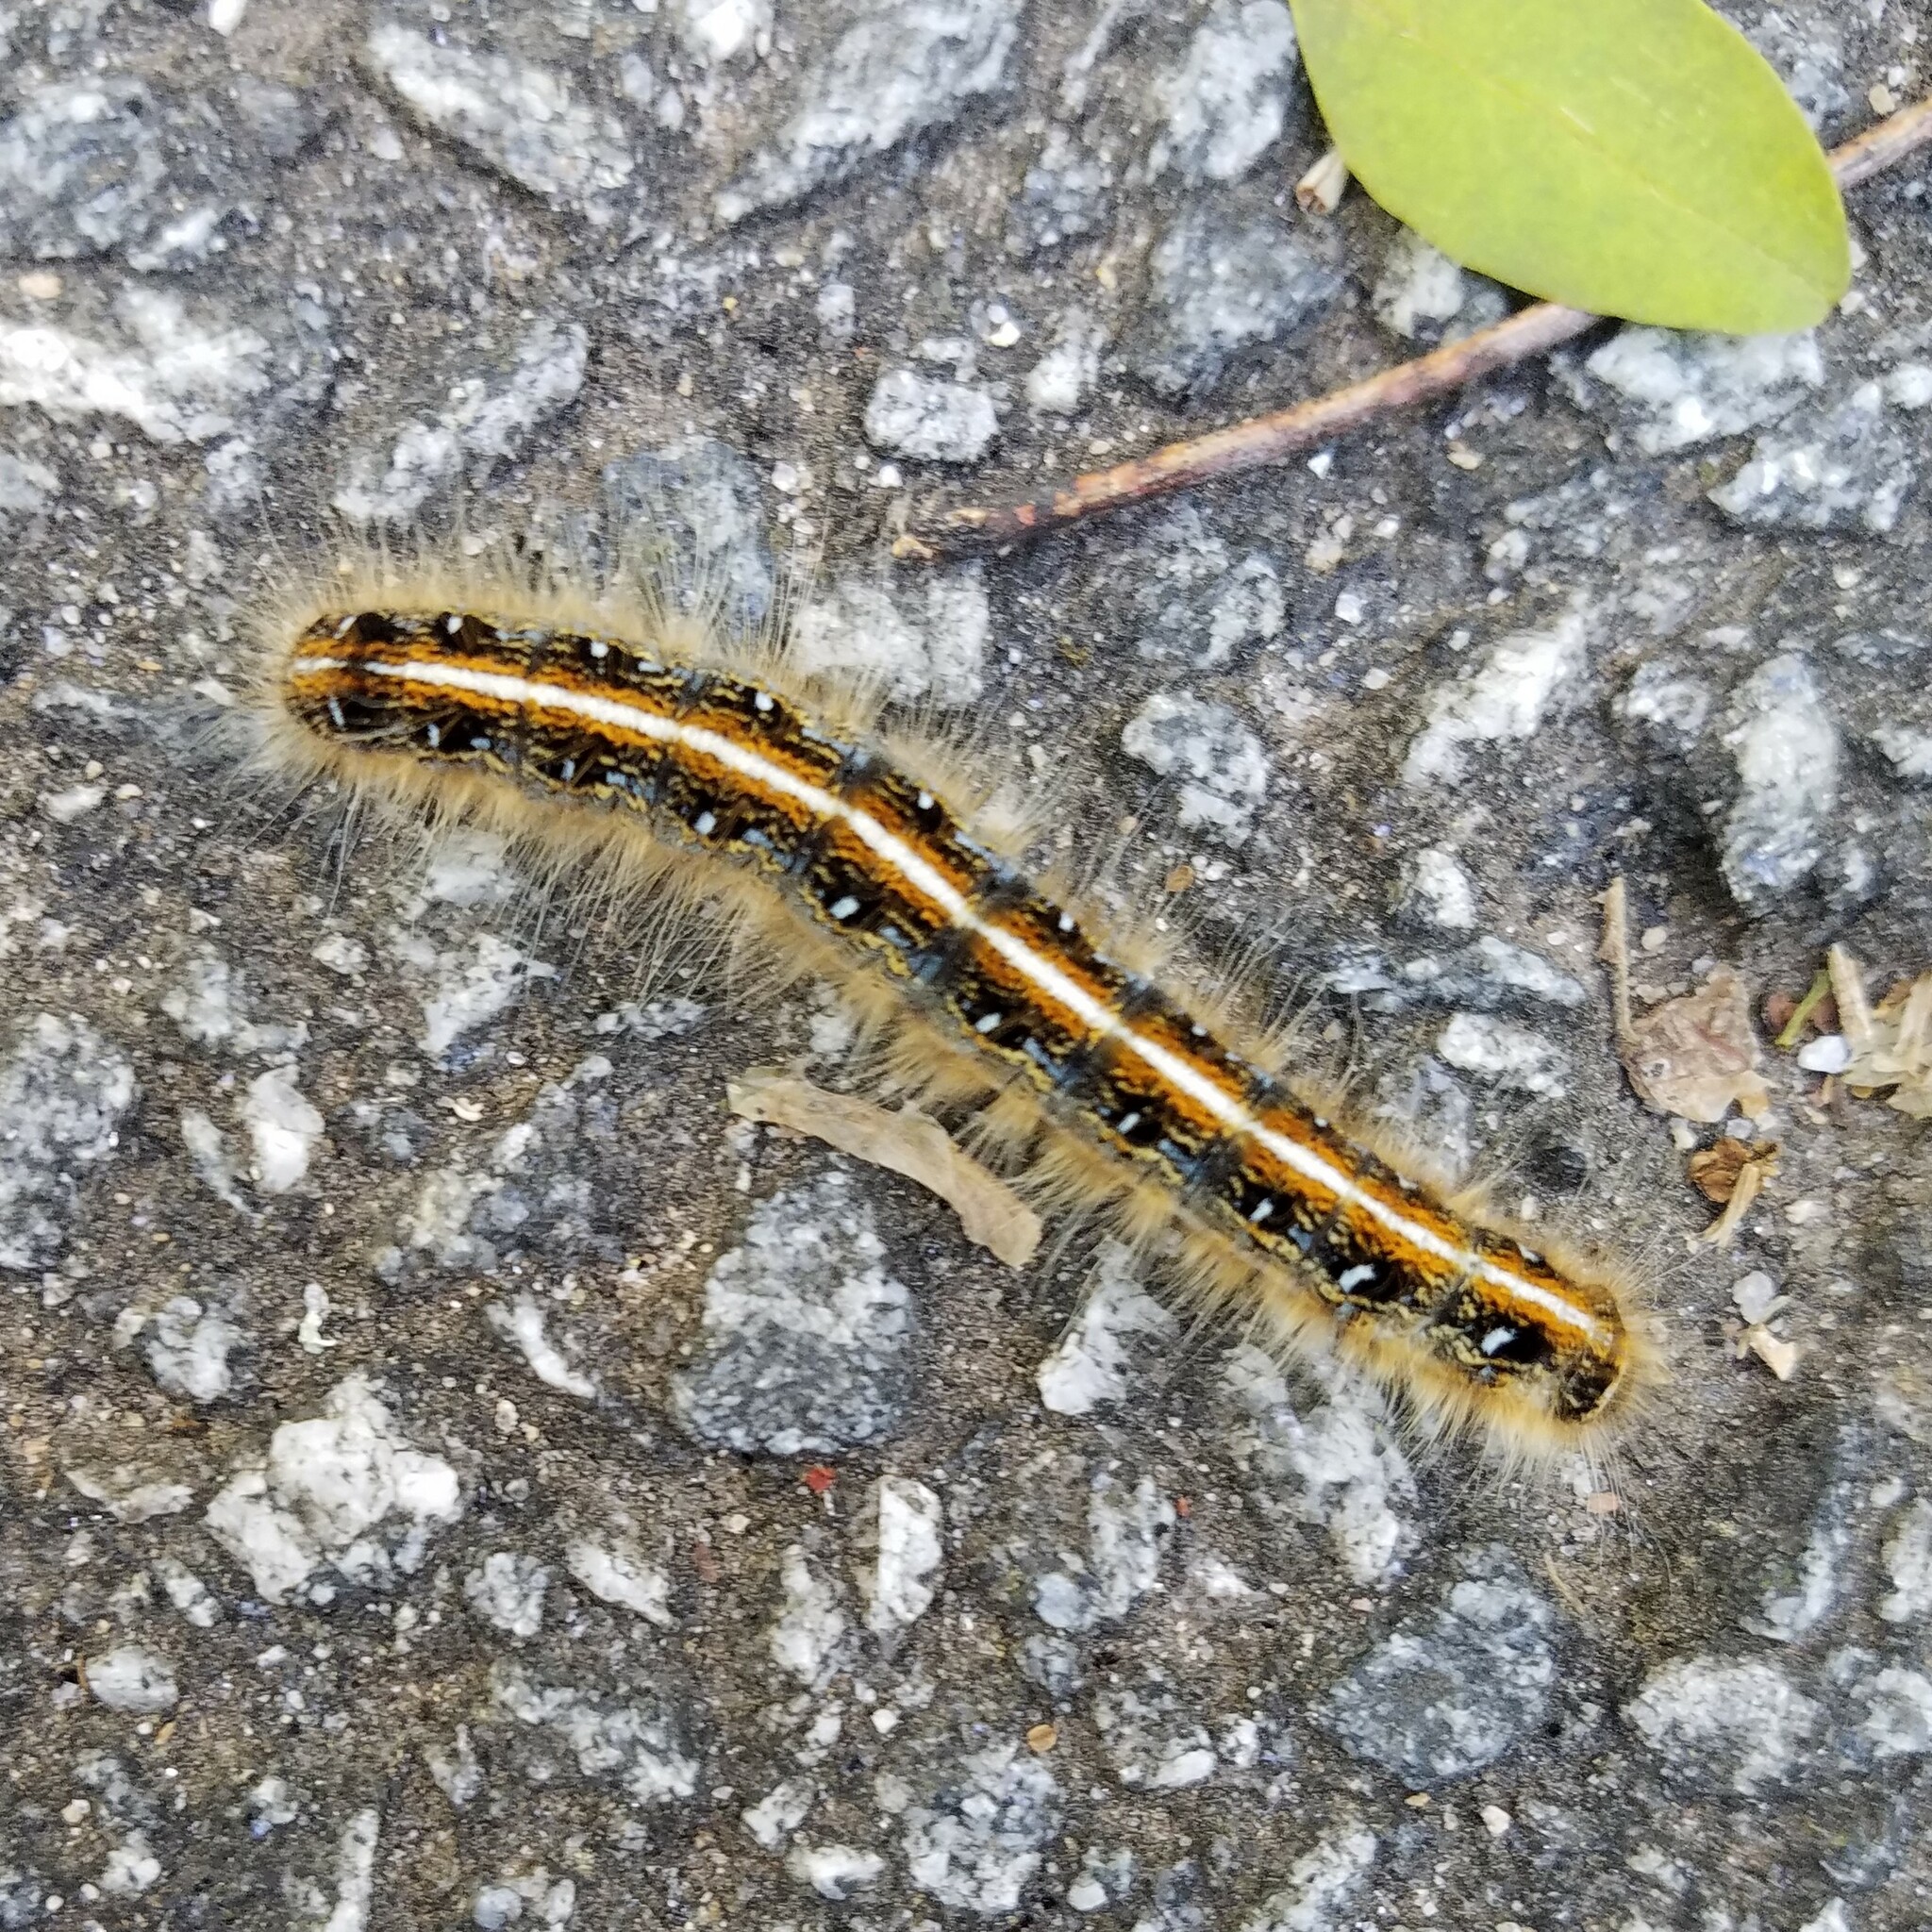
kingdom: Animalia
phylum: Arthropoda
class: Insecta
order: Lepidoptera
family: Lasiocampidae
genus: Malacosoma
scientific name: Malacosoma americana
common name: Eastern tent caterpillar moth
